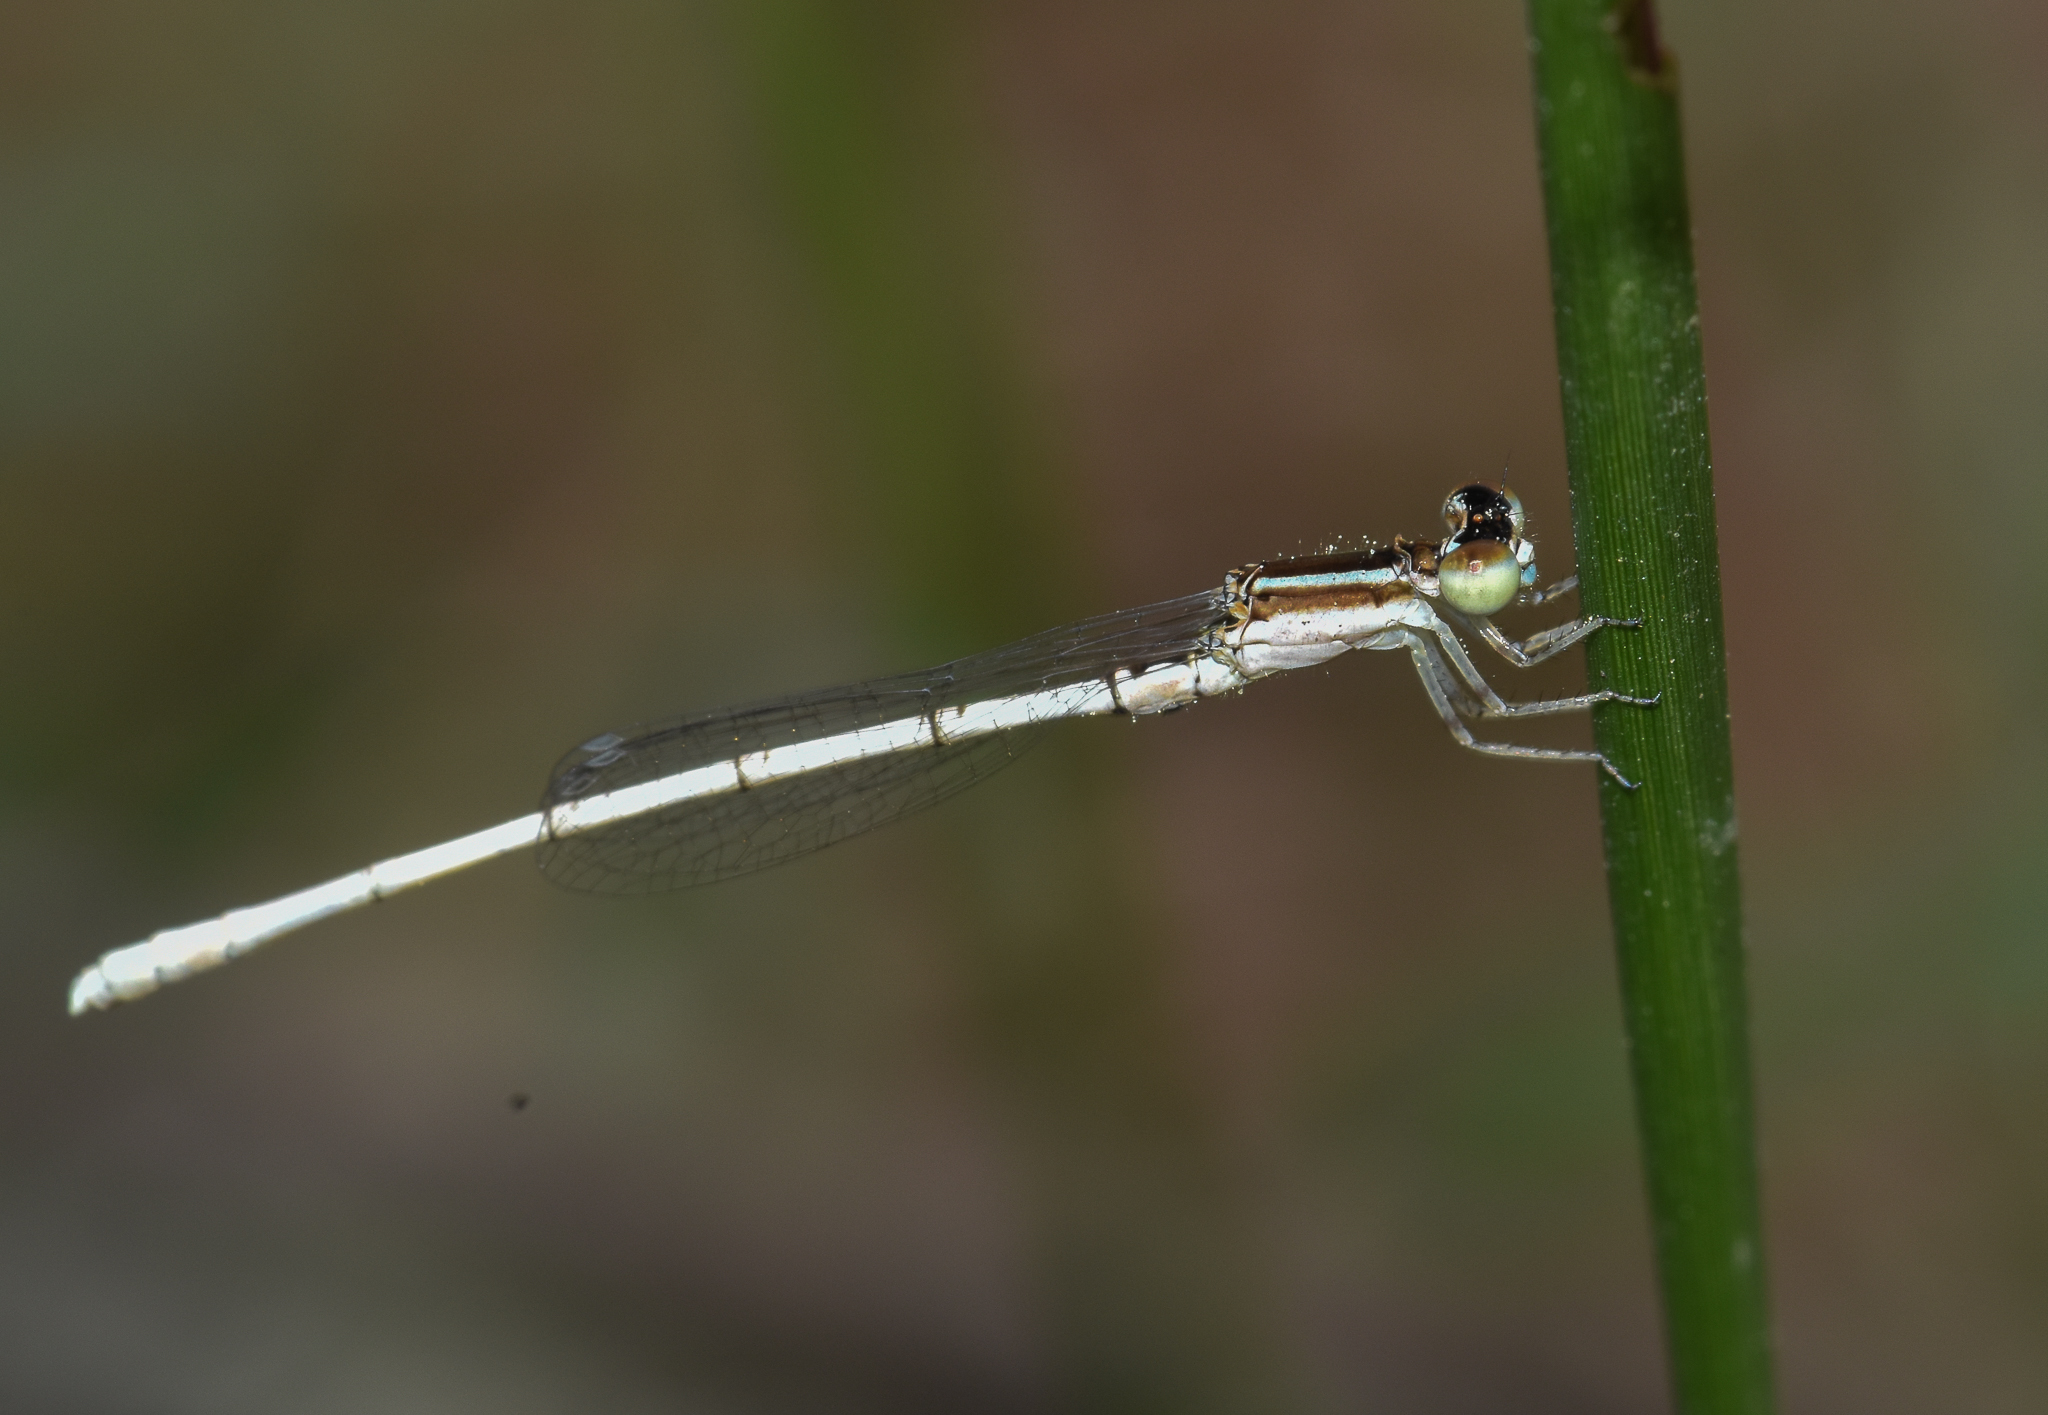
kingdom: Animalia
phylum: Arthropoda
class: Insecta
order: Odonata
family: Coenagrionidae
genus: Agriocnemis
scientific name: Agriocnemis lacteola
